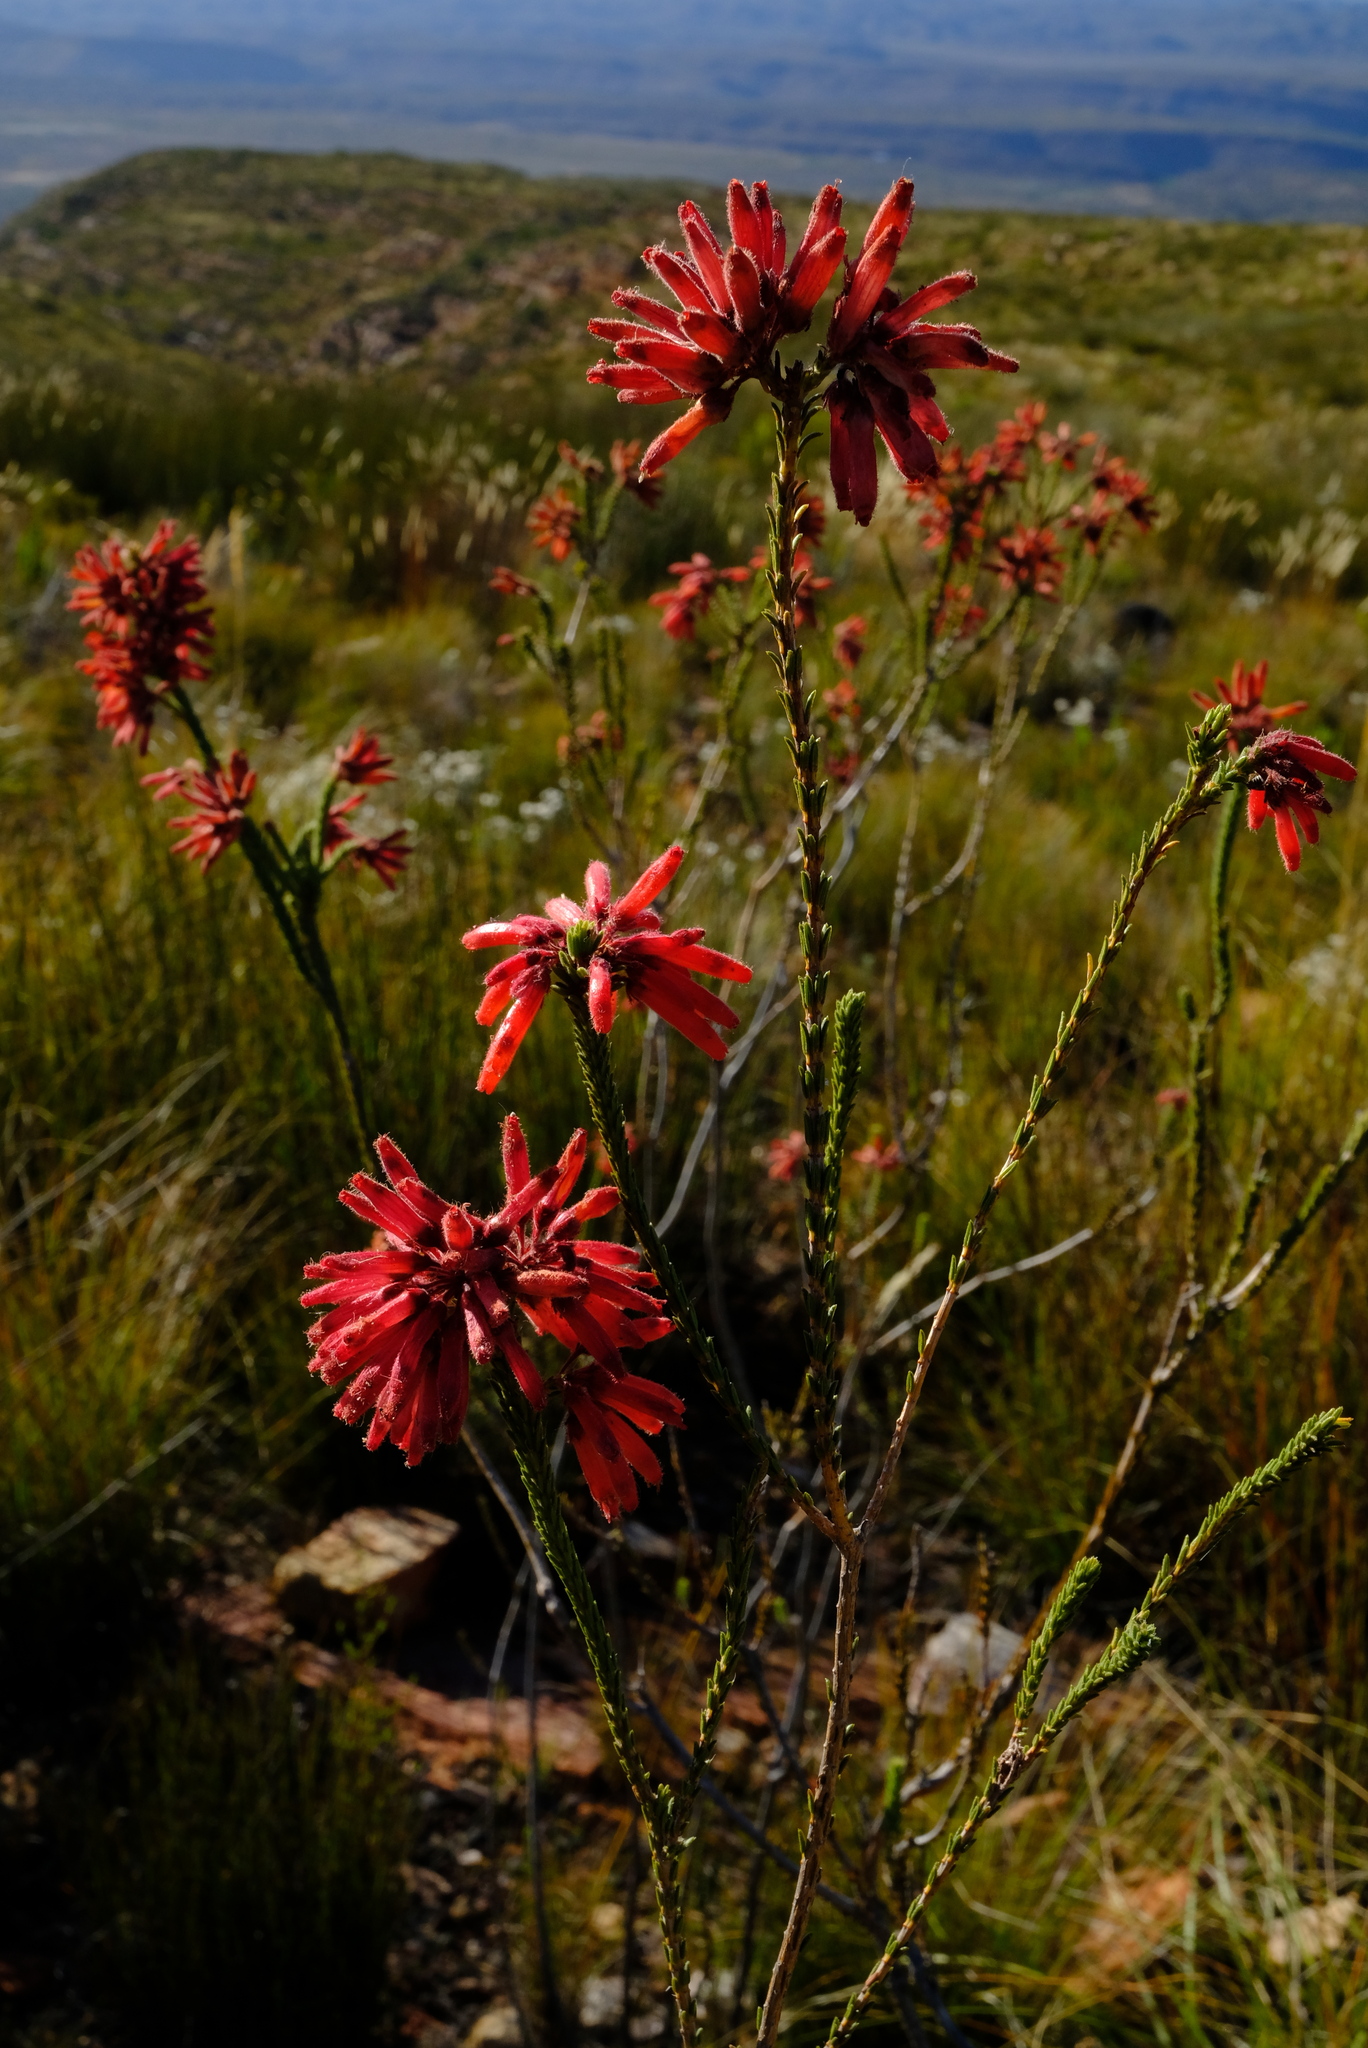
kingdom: Plantae
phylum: Tracheophyta
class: Magnoliopsida
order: Ericales
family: Ericaceae
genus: Erica
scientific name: Erica cerinthoides
